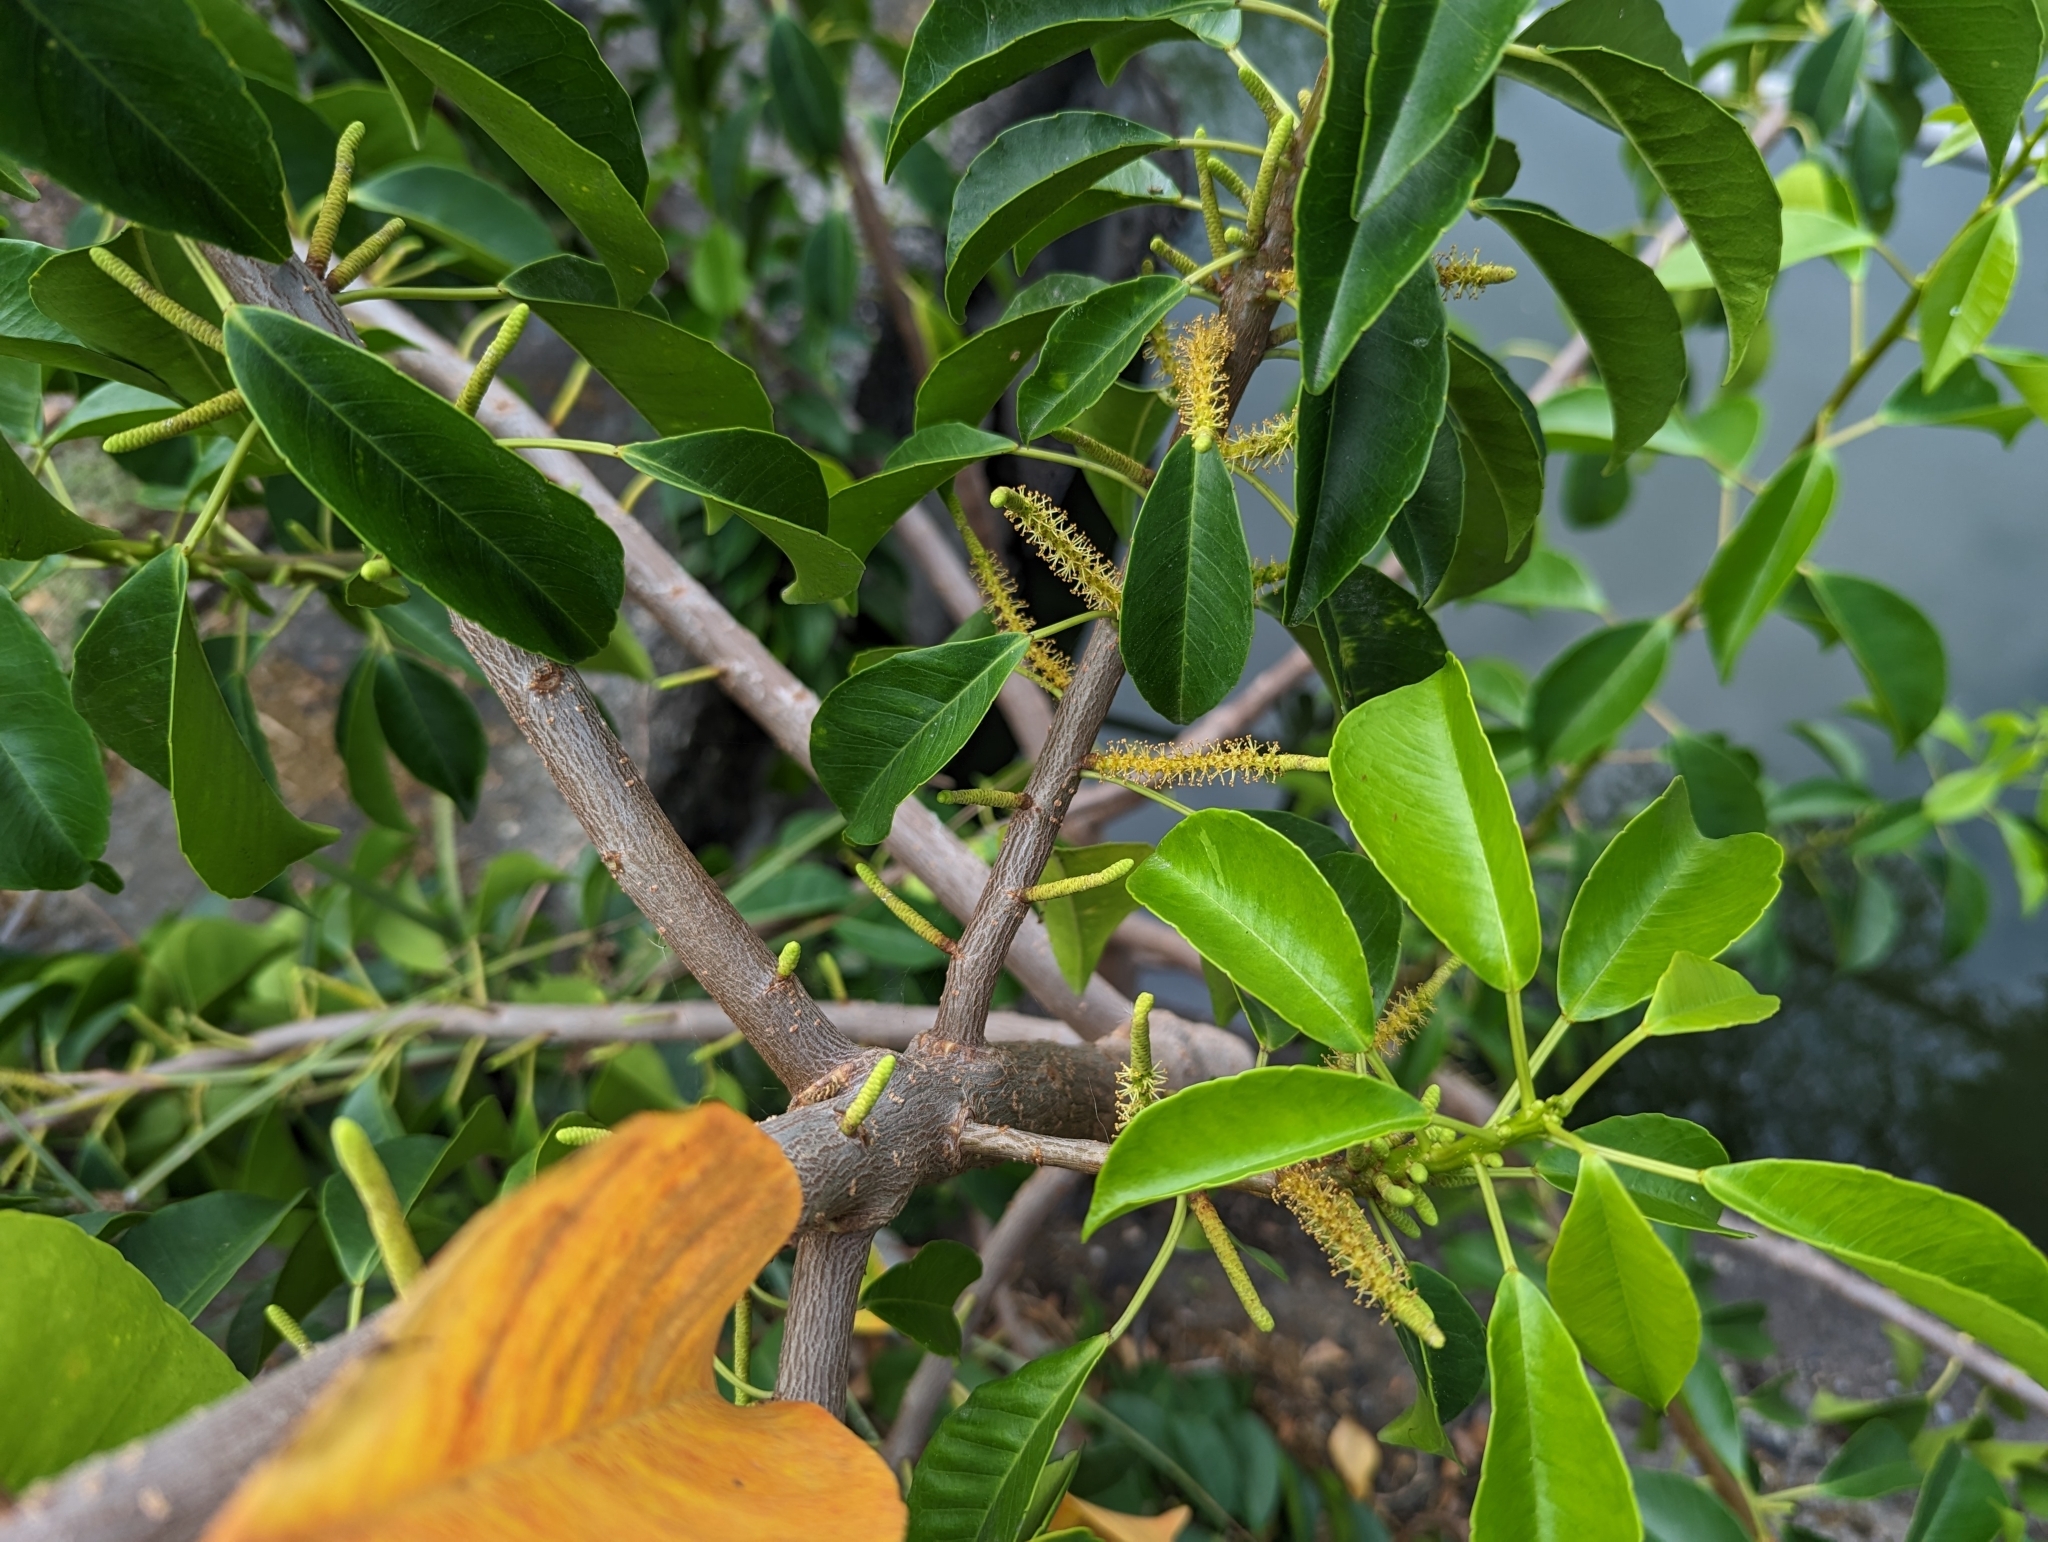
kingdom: Plantae
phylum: Tracheophyta
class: Magnoliopsida
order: Malpighiales
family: Euphorbiaceae
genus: Excoecaria
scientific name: Excoecaria agallocha
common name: River poisontree
